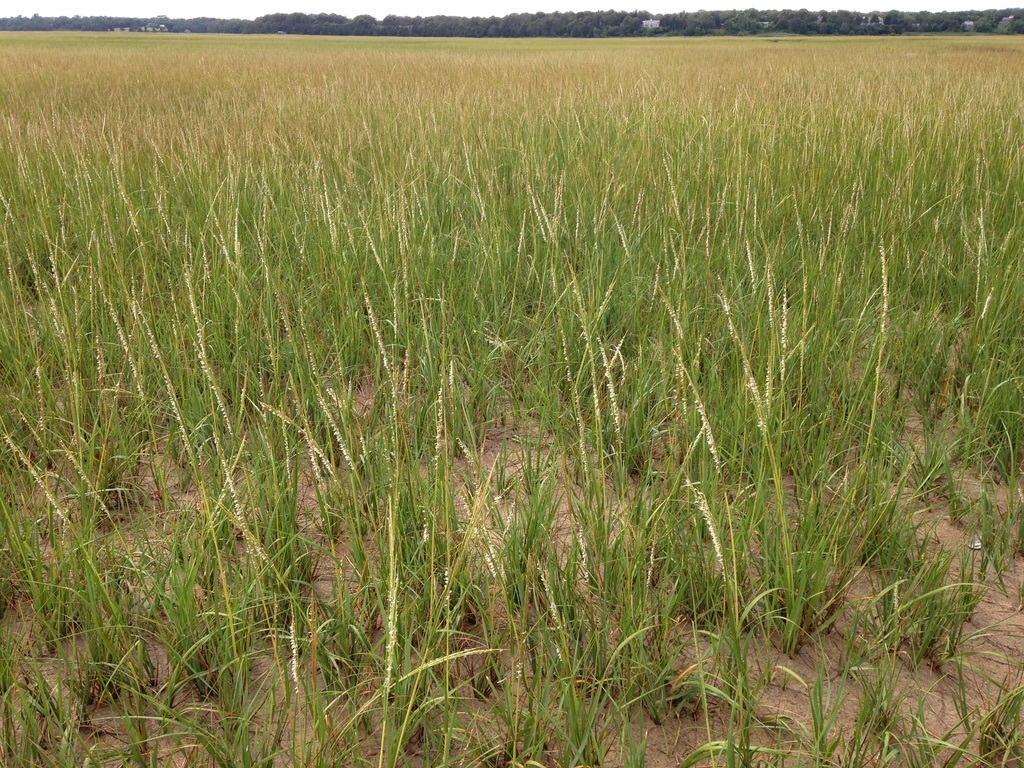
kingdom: Plantae
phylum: Tracheophyta
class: Liliopsida
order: Poales
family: Poaceae
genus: Calamagrostis
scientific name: Calamagrostis breviligulata
